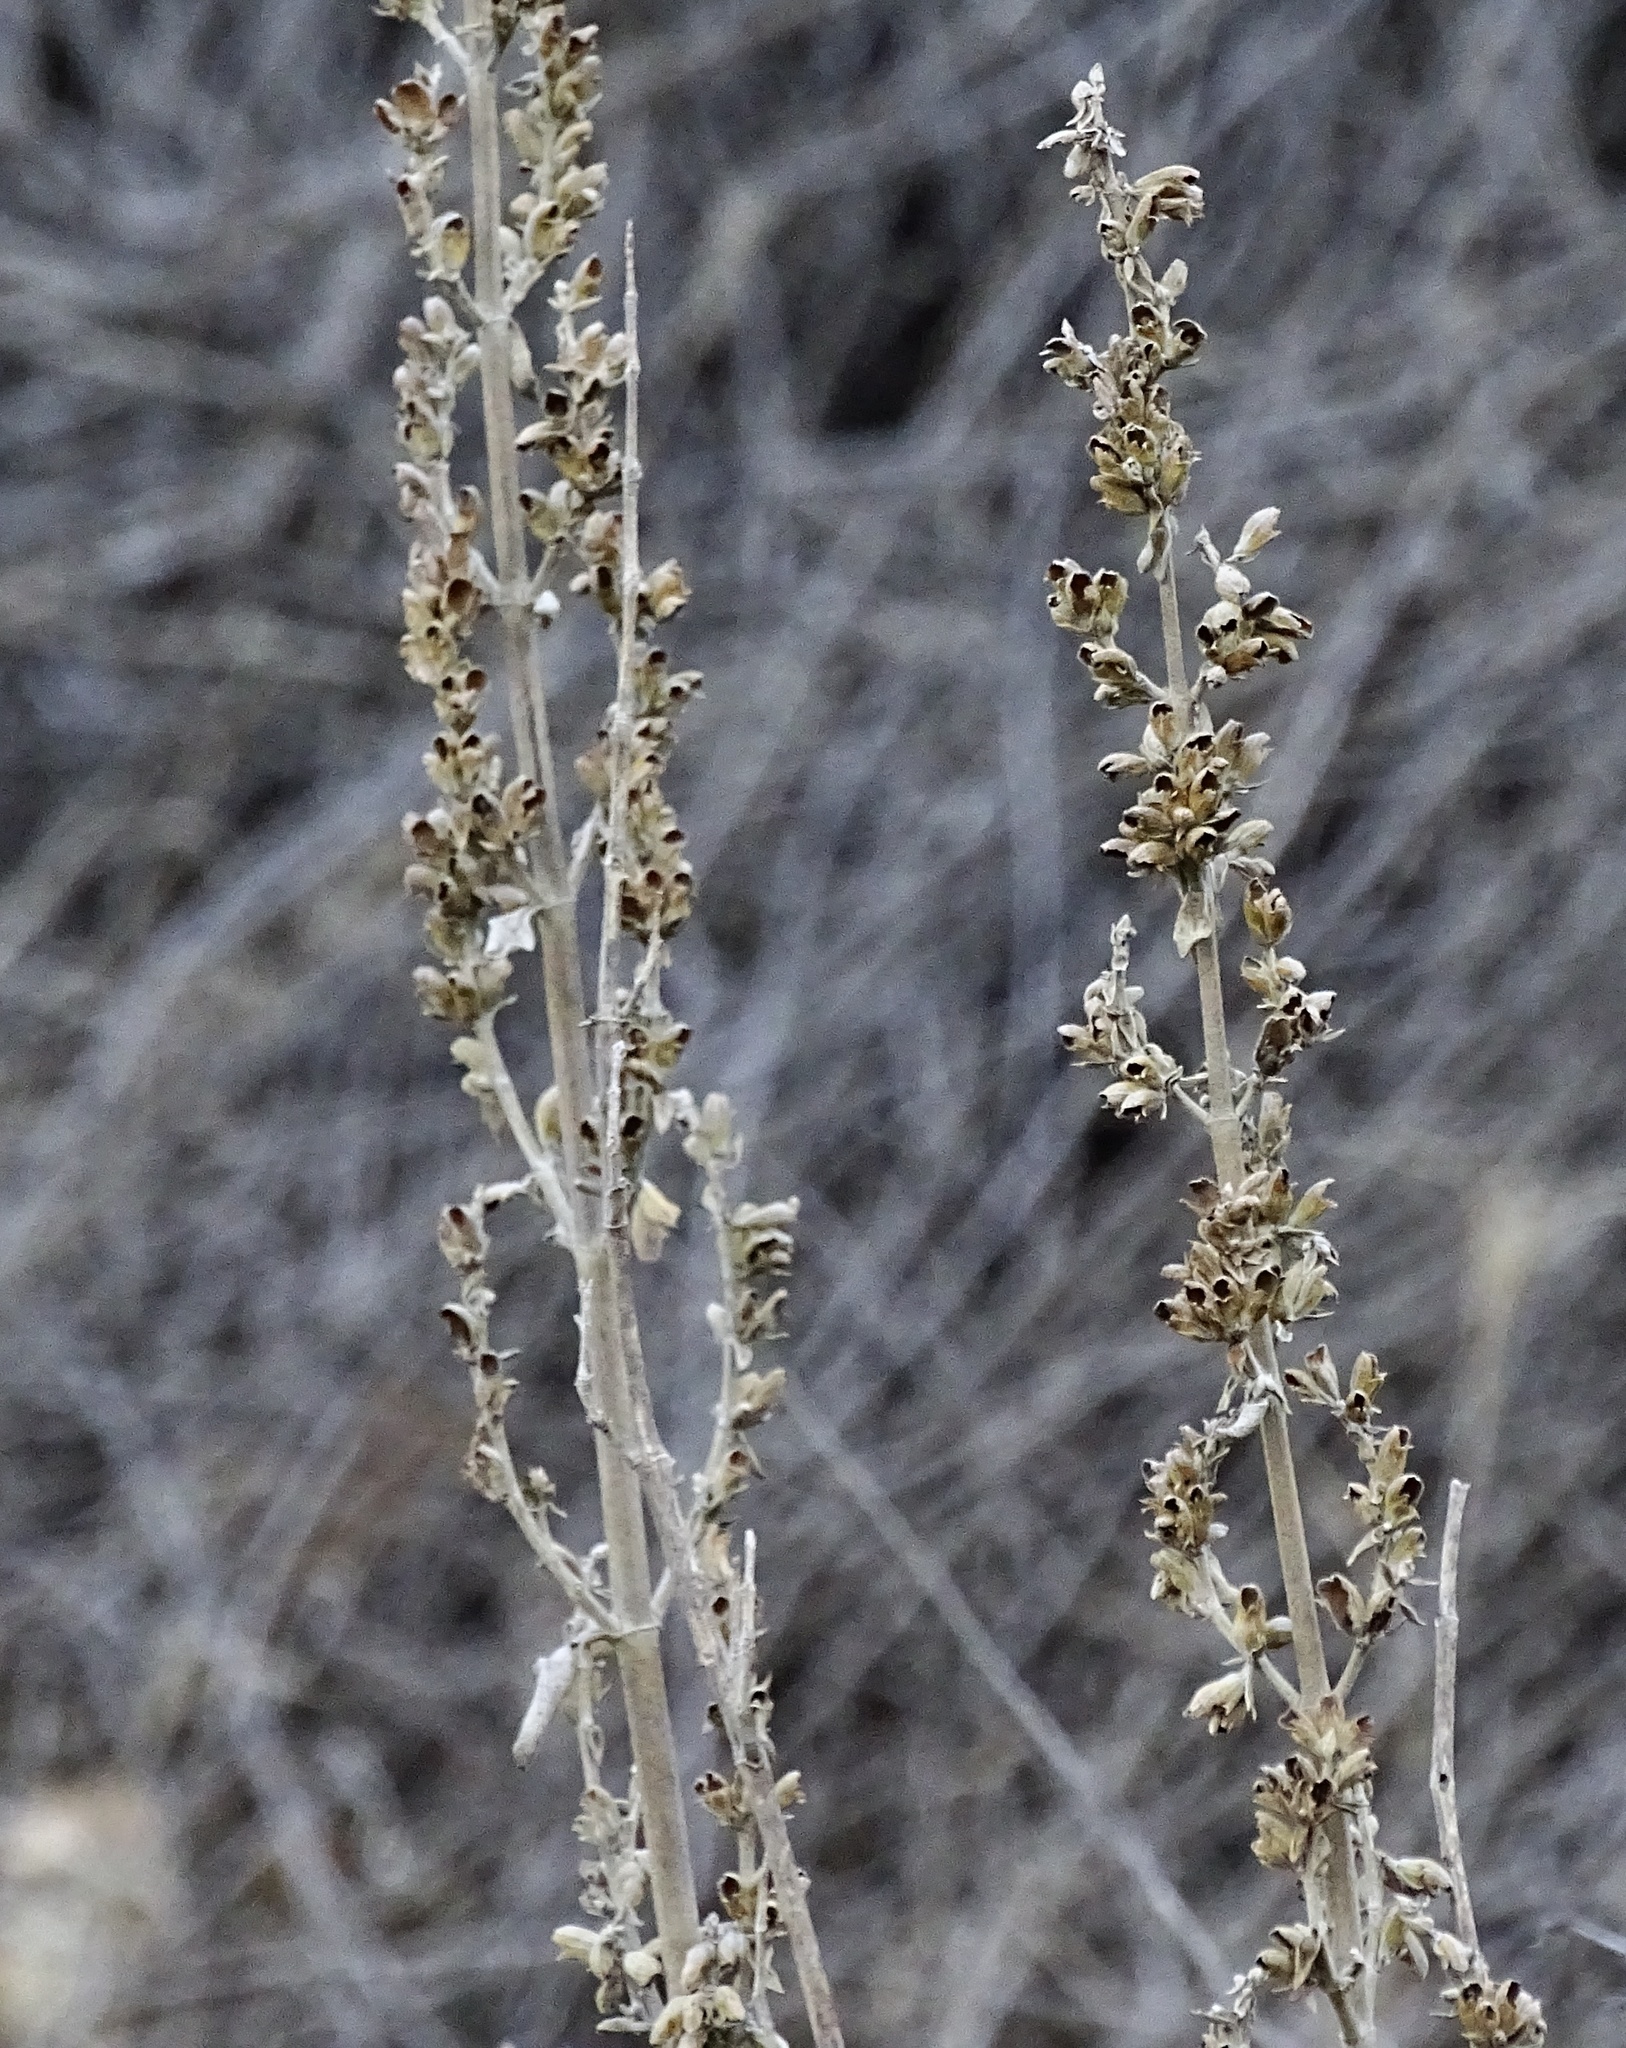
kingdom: Plantae
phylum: Tracheophyta
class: Magnoliopsida
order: Lamiales
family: Lamiaceae
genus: Salvia
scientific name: Salvia apiana
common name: White sage
